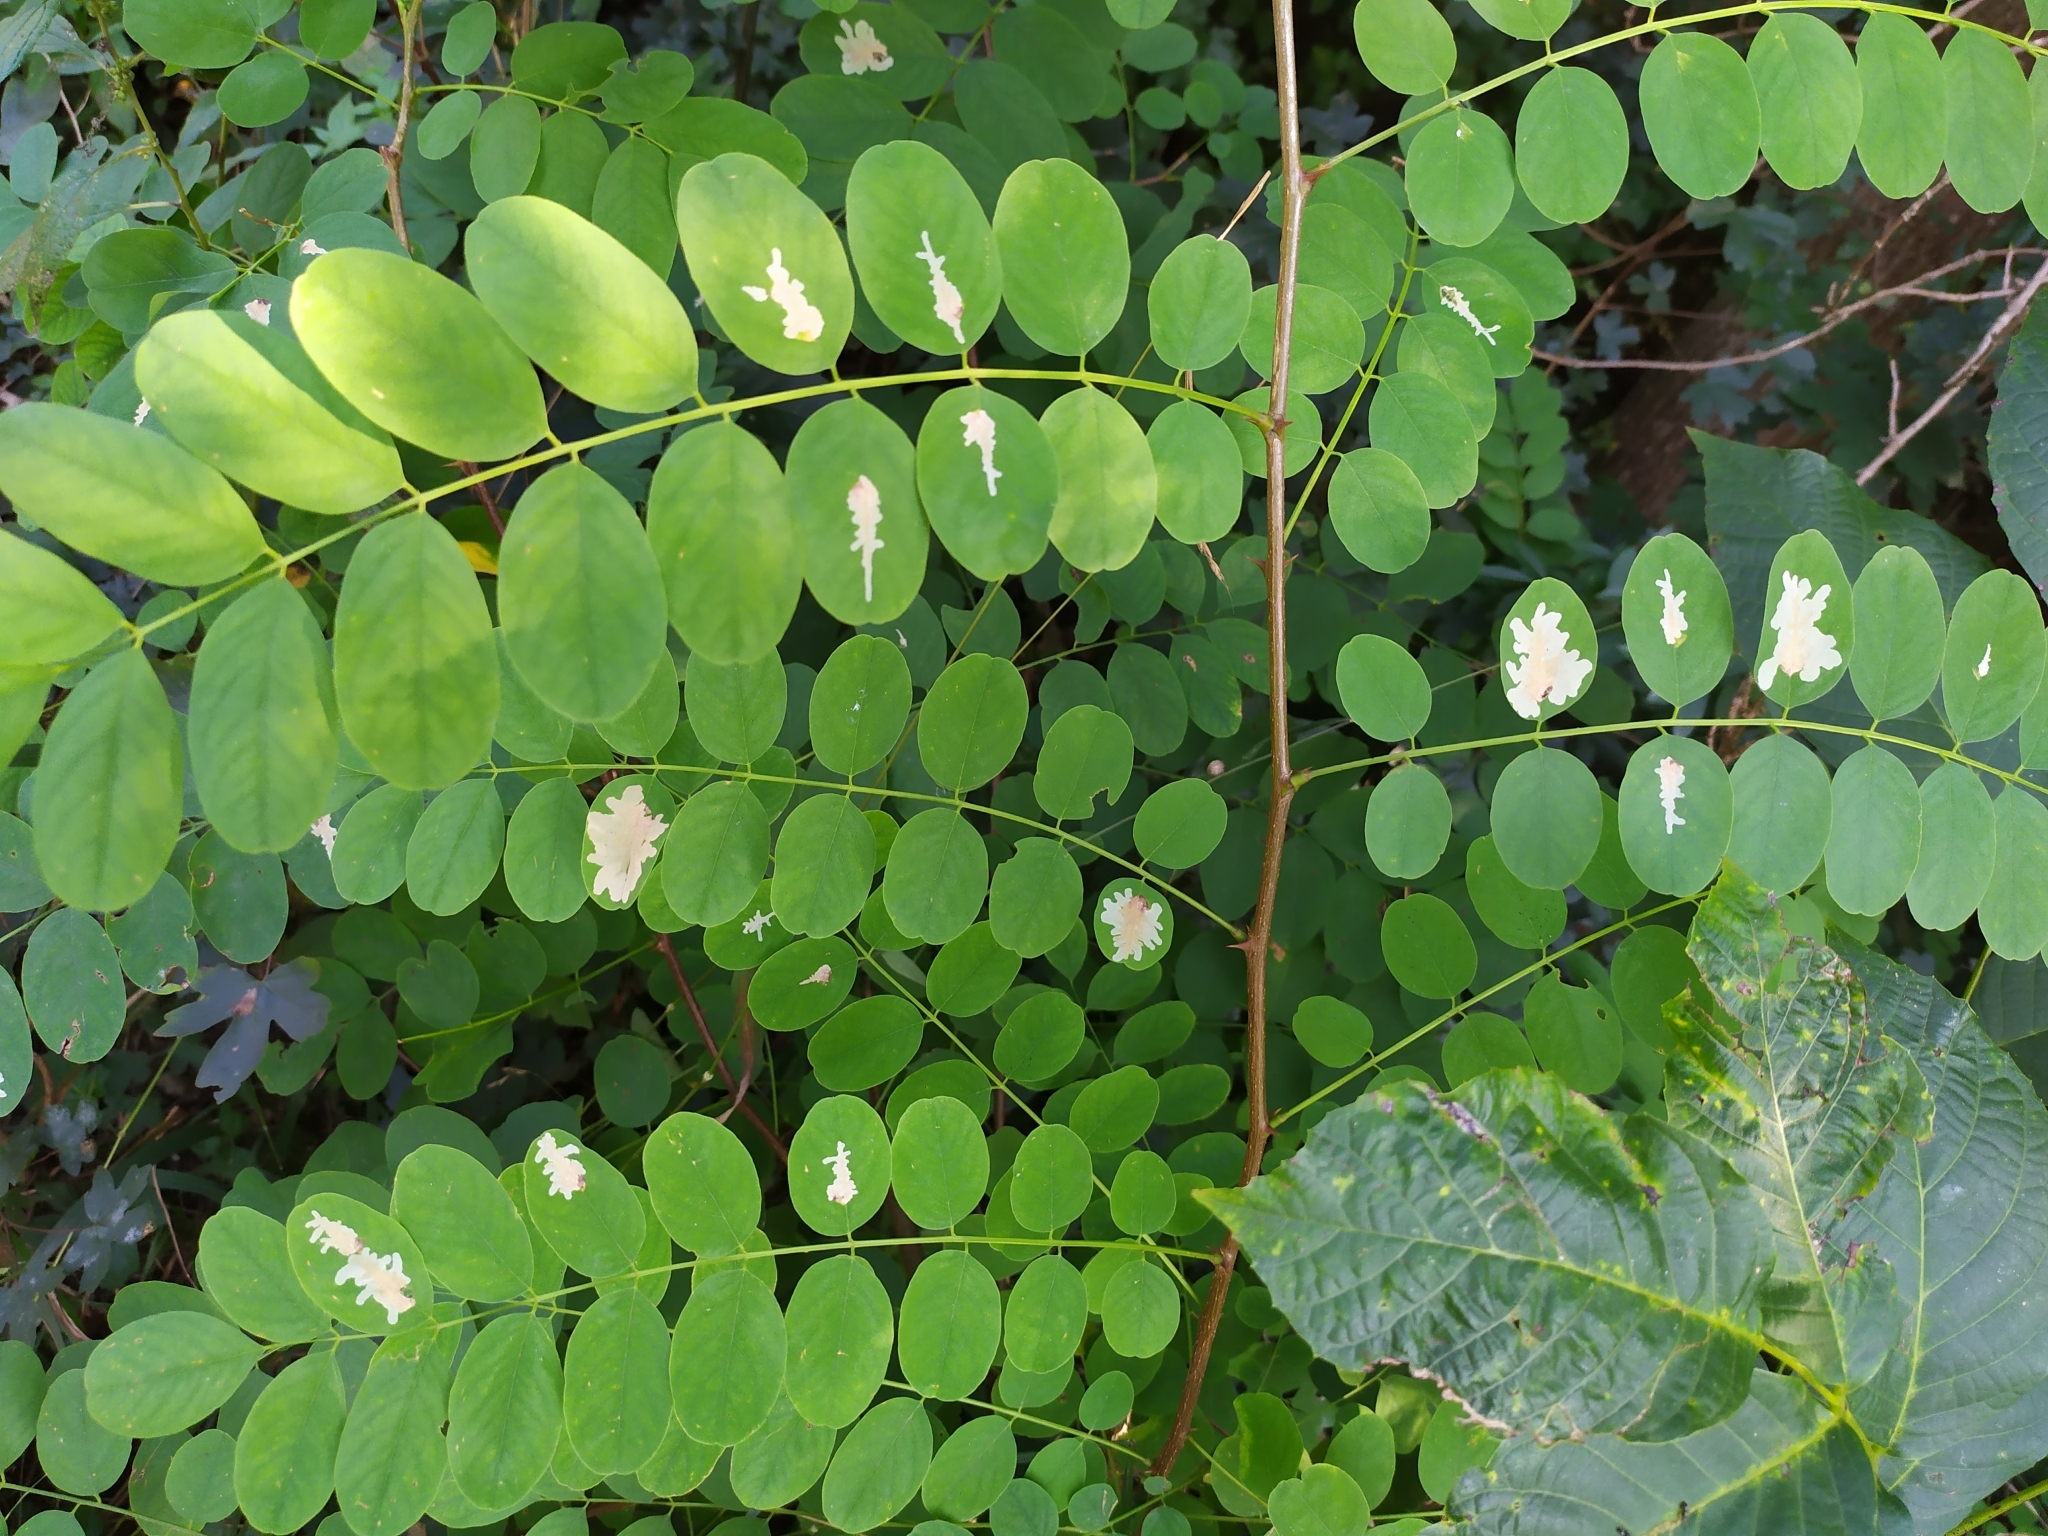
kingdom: Animalia
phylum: Arthropoda
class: Insecta
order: Lepidoptera
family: Gracillariidae
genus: Parectopa
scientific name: Parectopa robiniella
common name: Locust digitate leafminer
